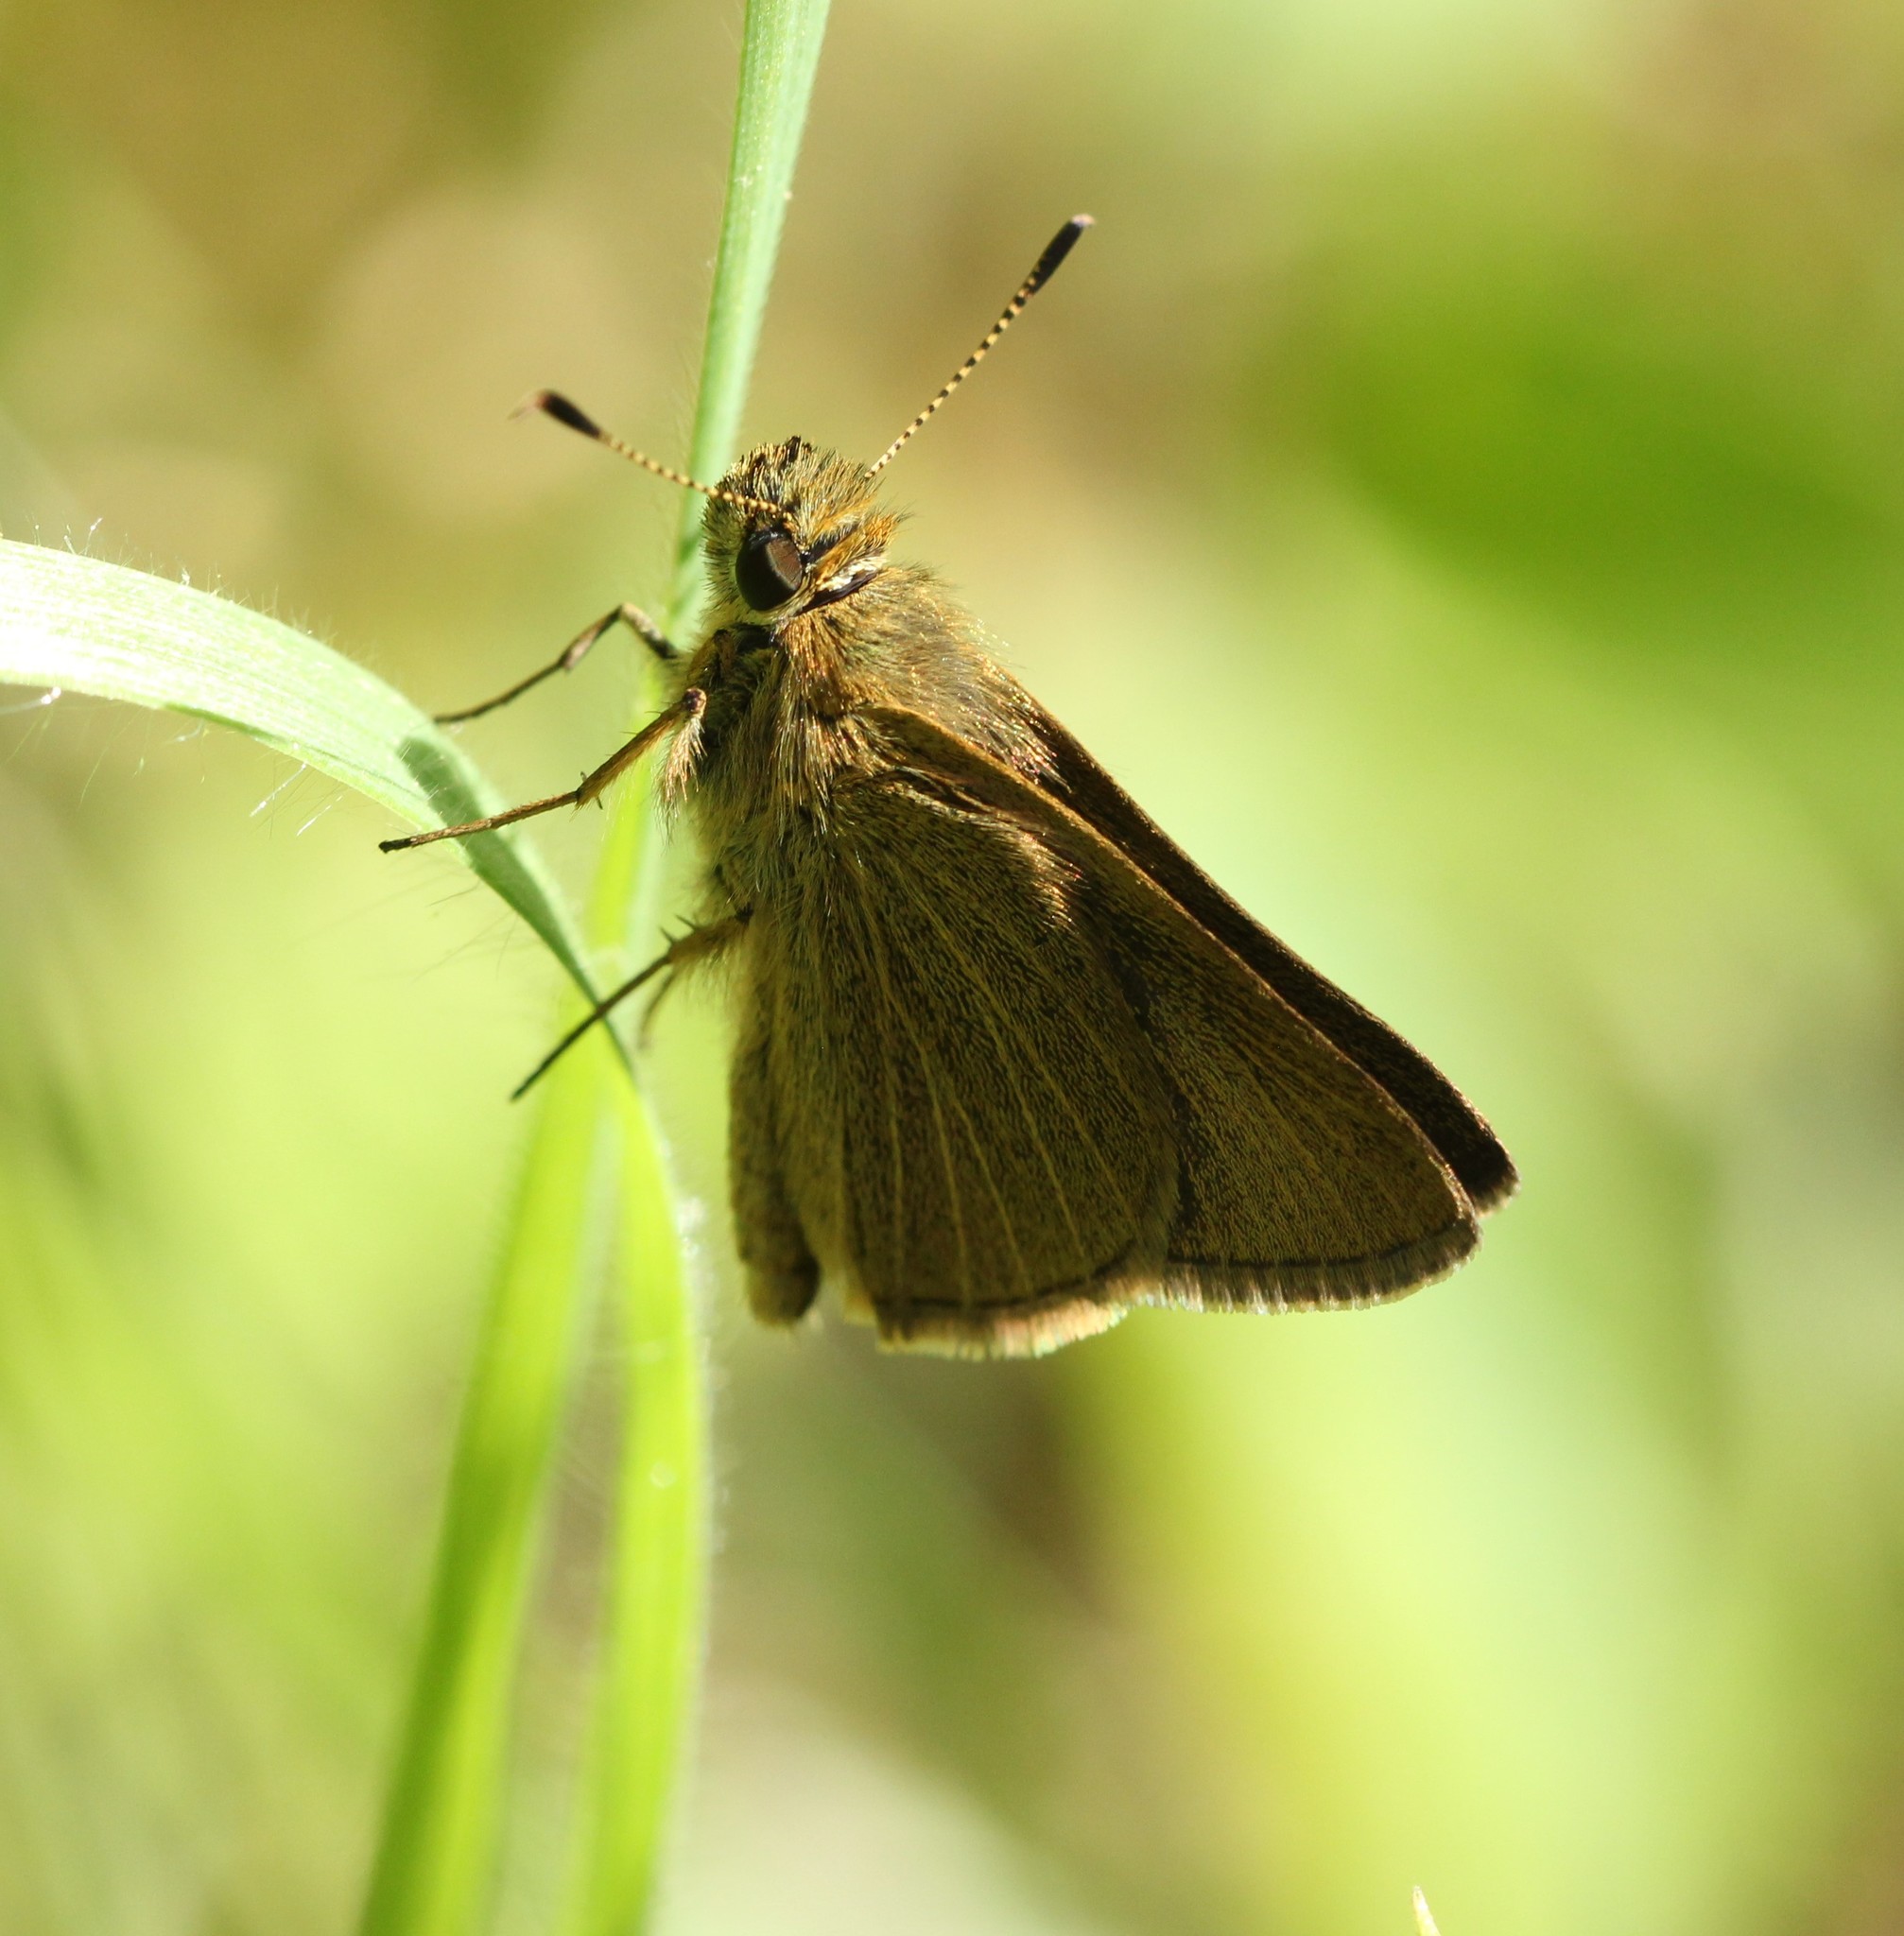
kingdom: Animalia
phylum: Arthropoda
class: Insecta
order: Lepidoptera
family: Hesperiidae
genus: Nastra
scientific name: Nastra lherminier
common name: Swarthy skipper
